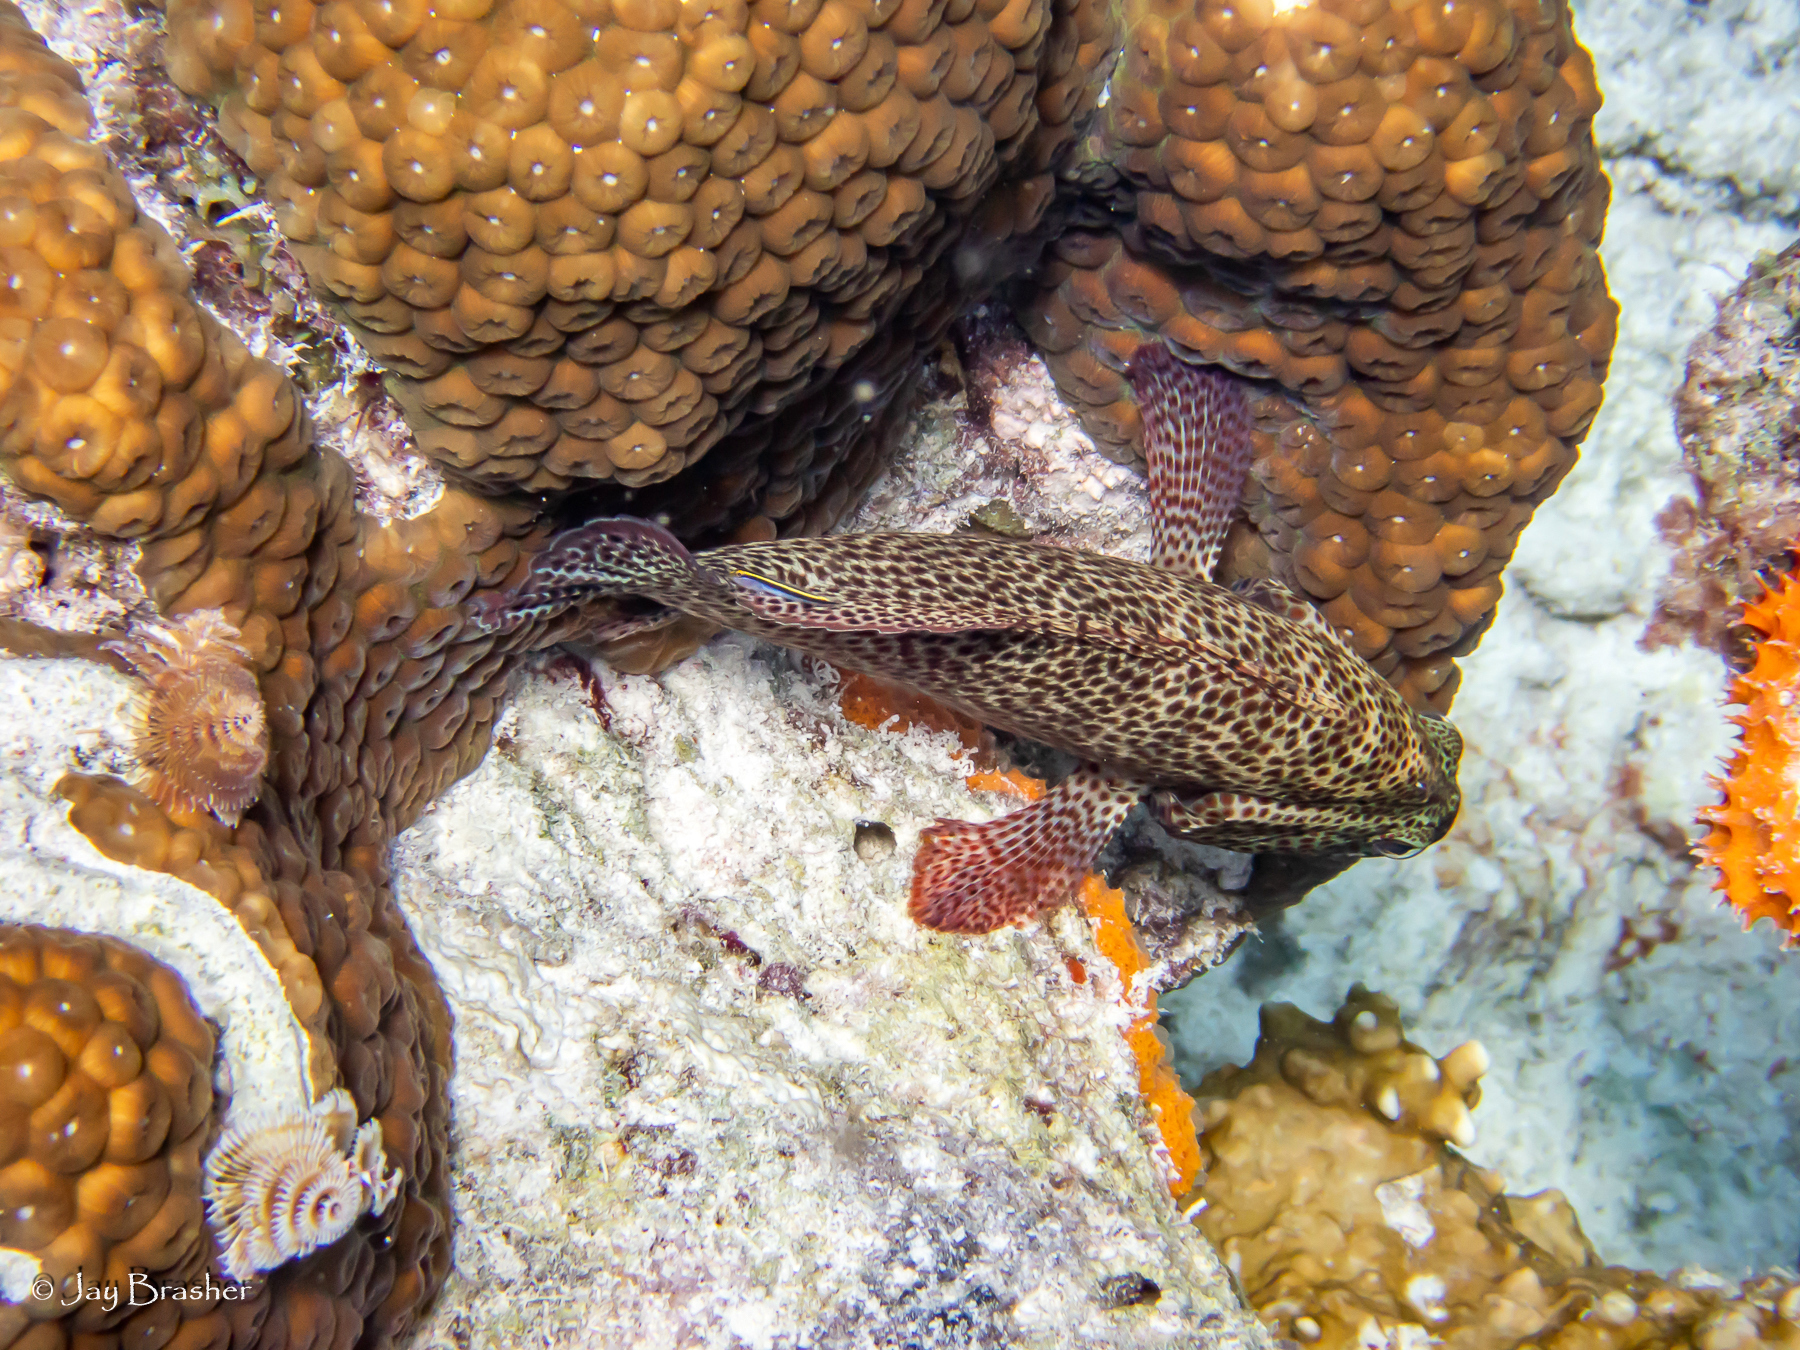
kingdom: Animalia
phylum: Annelida
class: Polychaeta
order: Sabellida
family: Serpulidae
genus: Spirobranchus
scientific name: Spirobranchus giganteus
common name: Christmas tree worm
